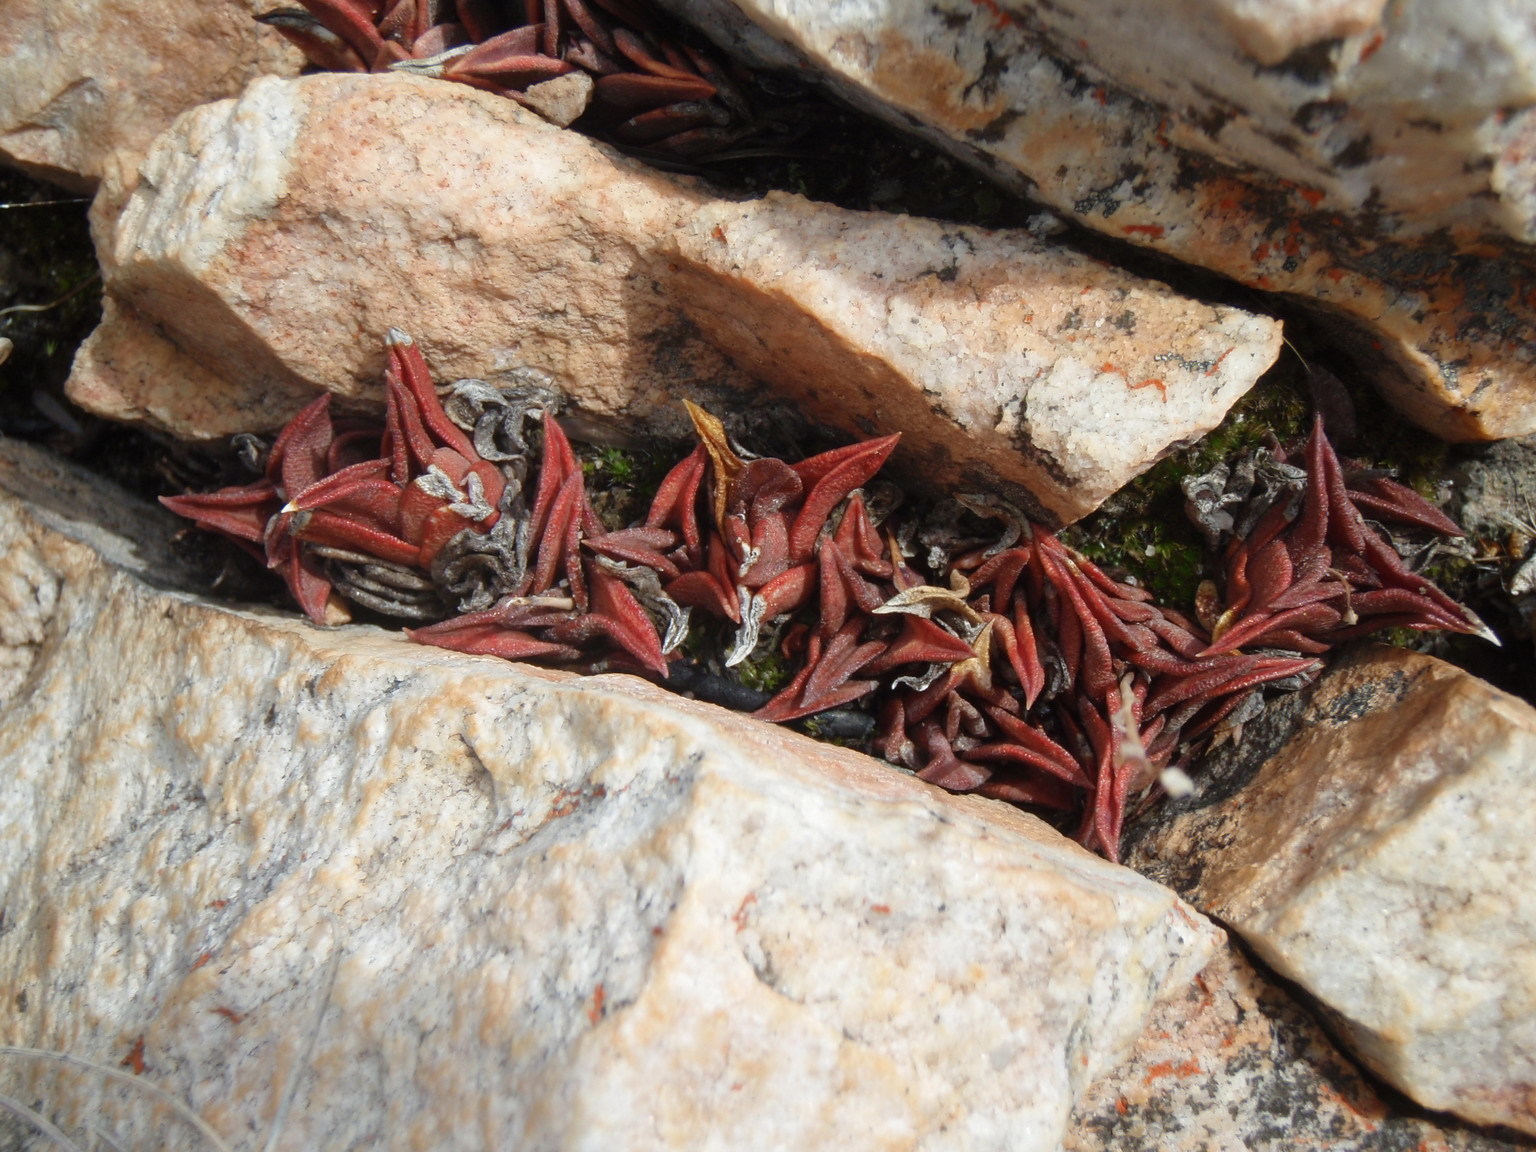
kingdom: Plantae
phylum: Tracheophyta
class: Liliopsida
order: Asparagales
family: Asphodelaceae
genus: Haworthiopsis
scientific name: Haworthiopsis viscosa
